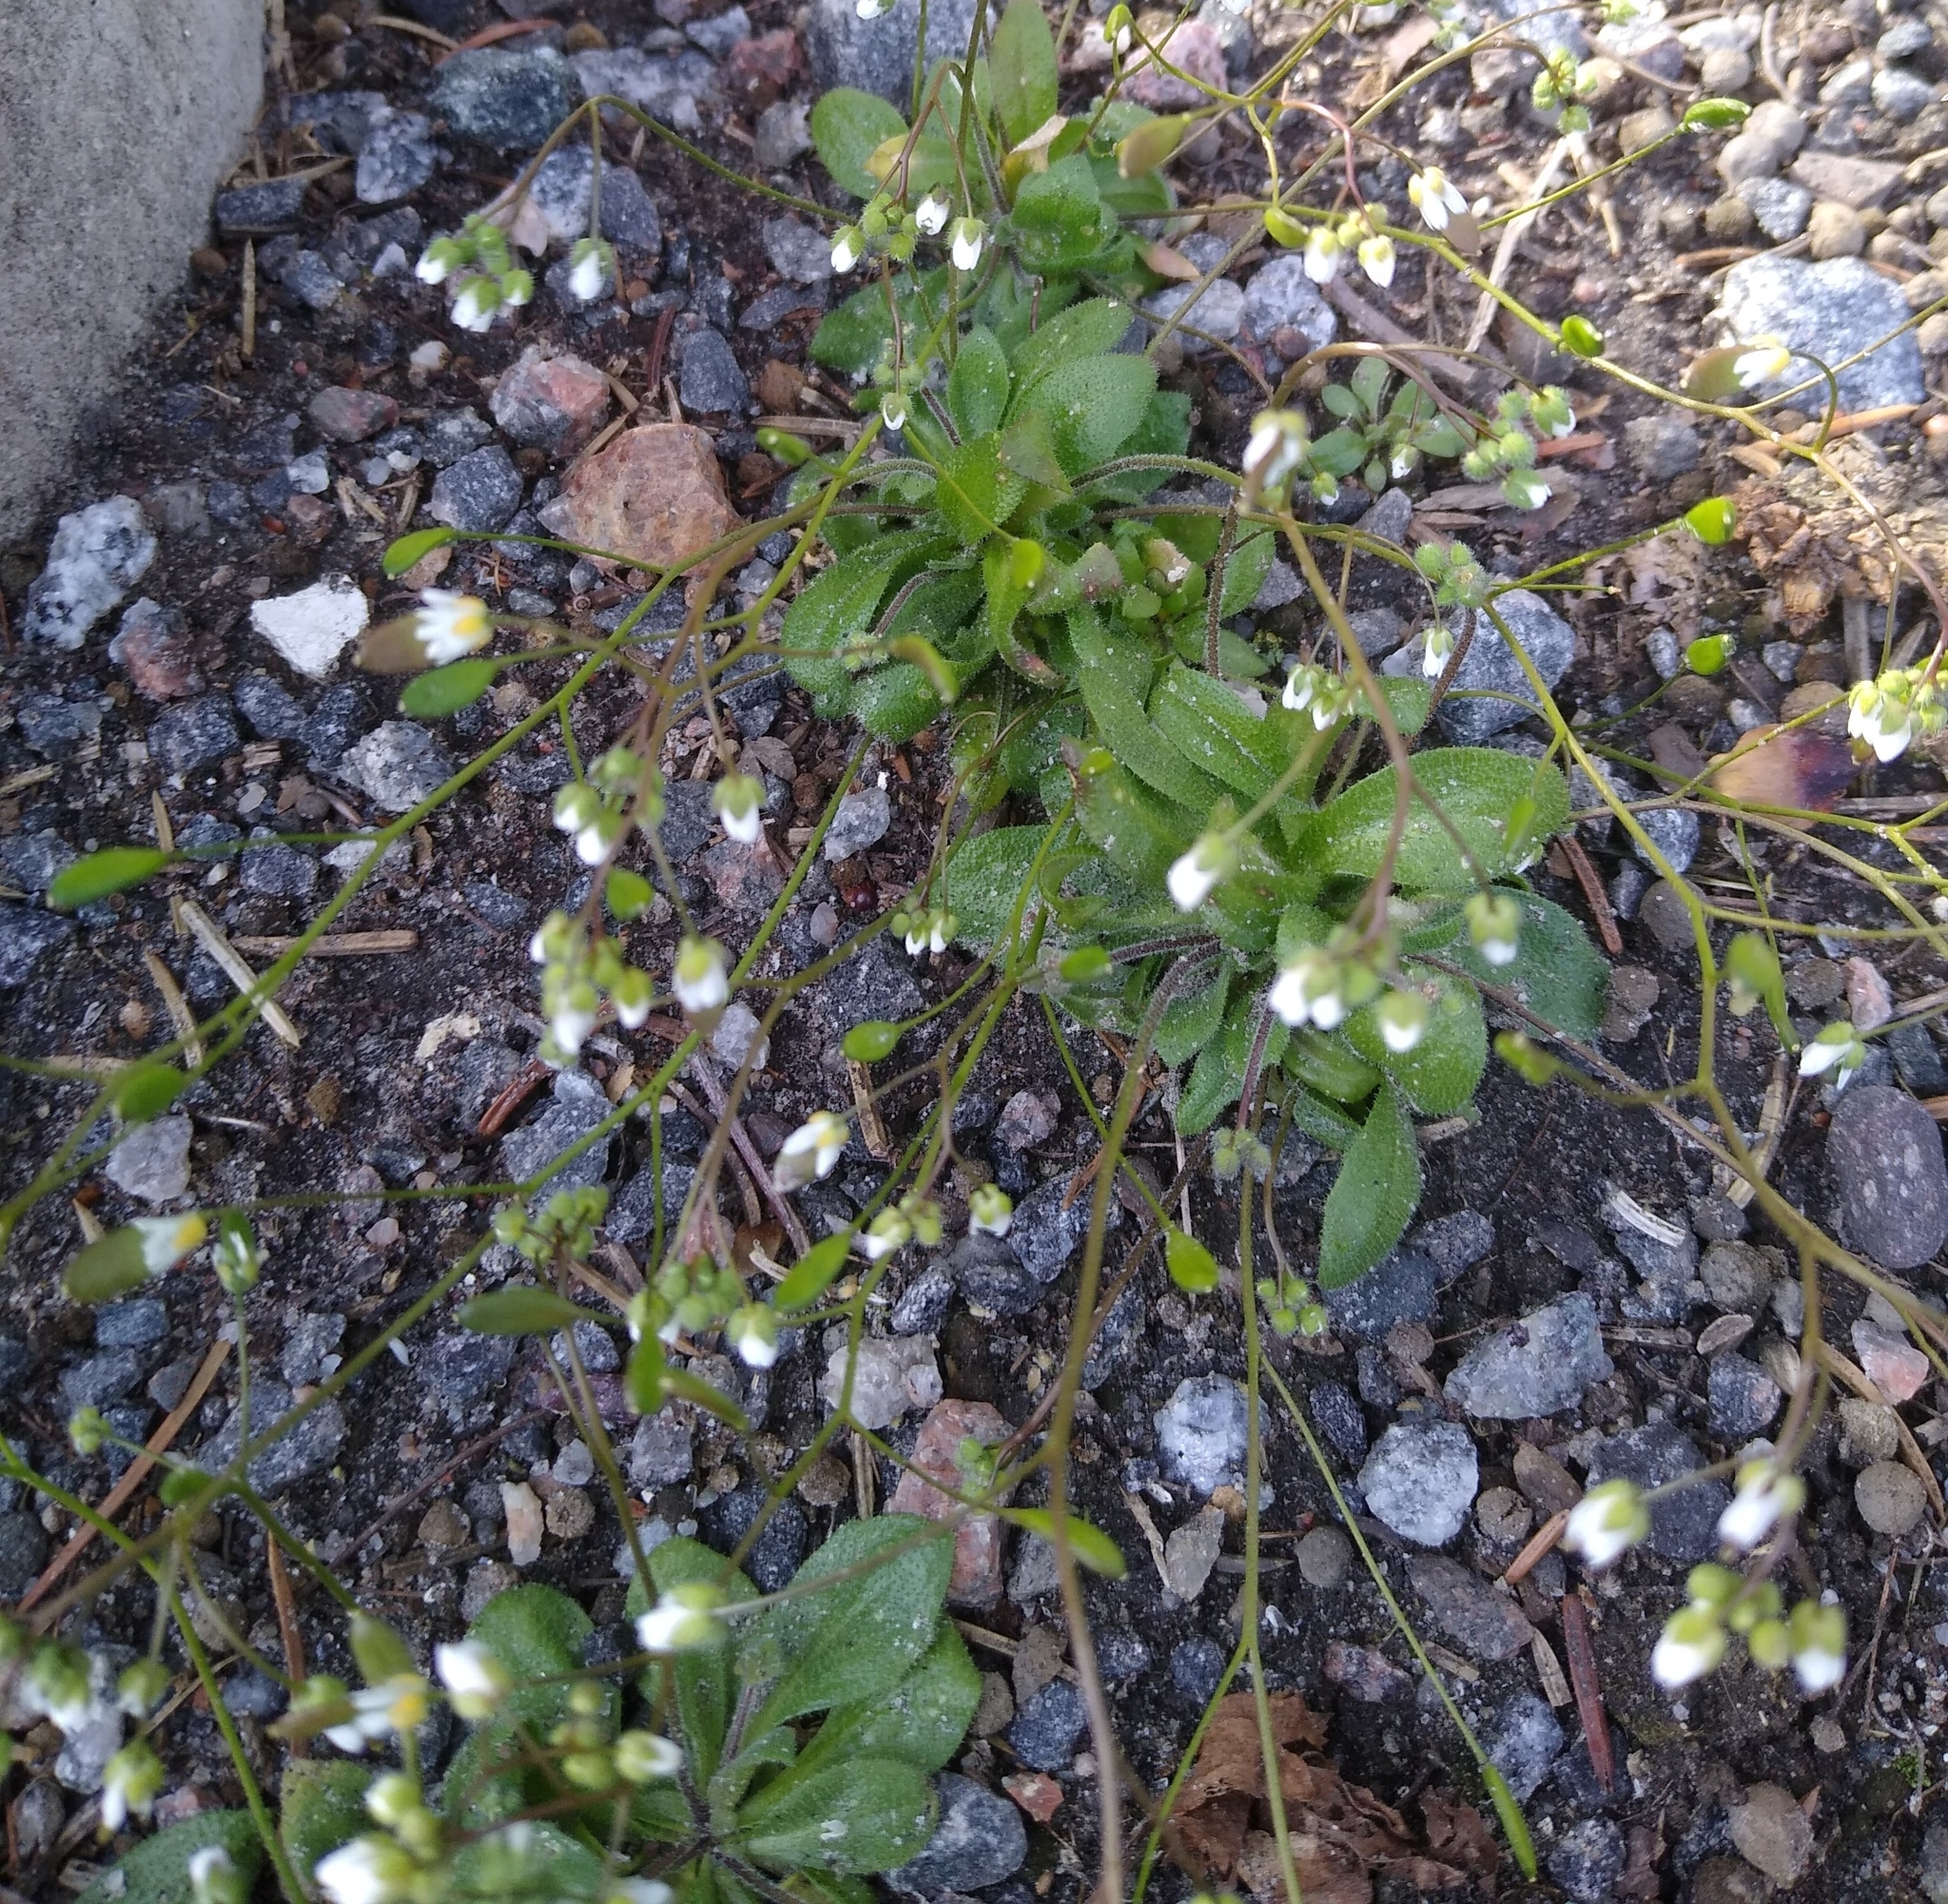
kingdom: Plantae
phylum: Tracheophyta
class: Magnoliopsida
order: Brassicales
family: Brassicaceae
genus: Draba
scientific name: Draba verna
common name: Spring draba
